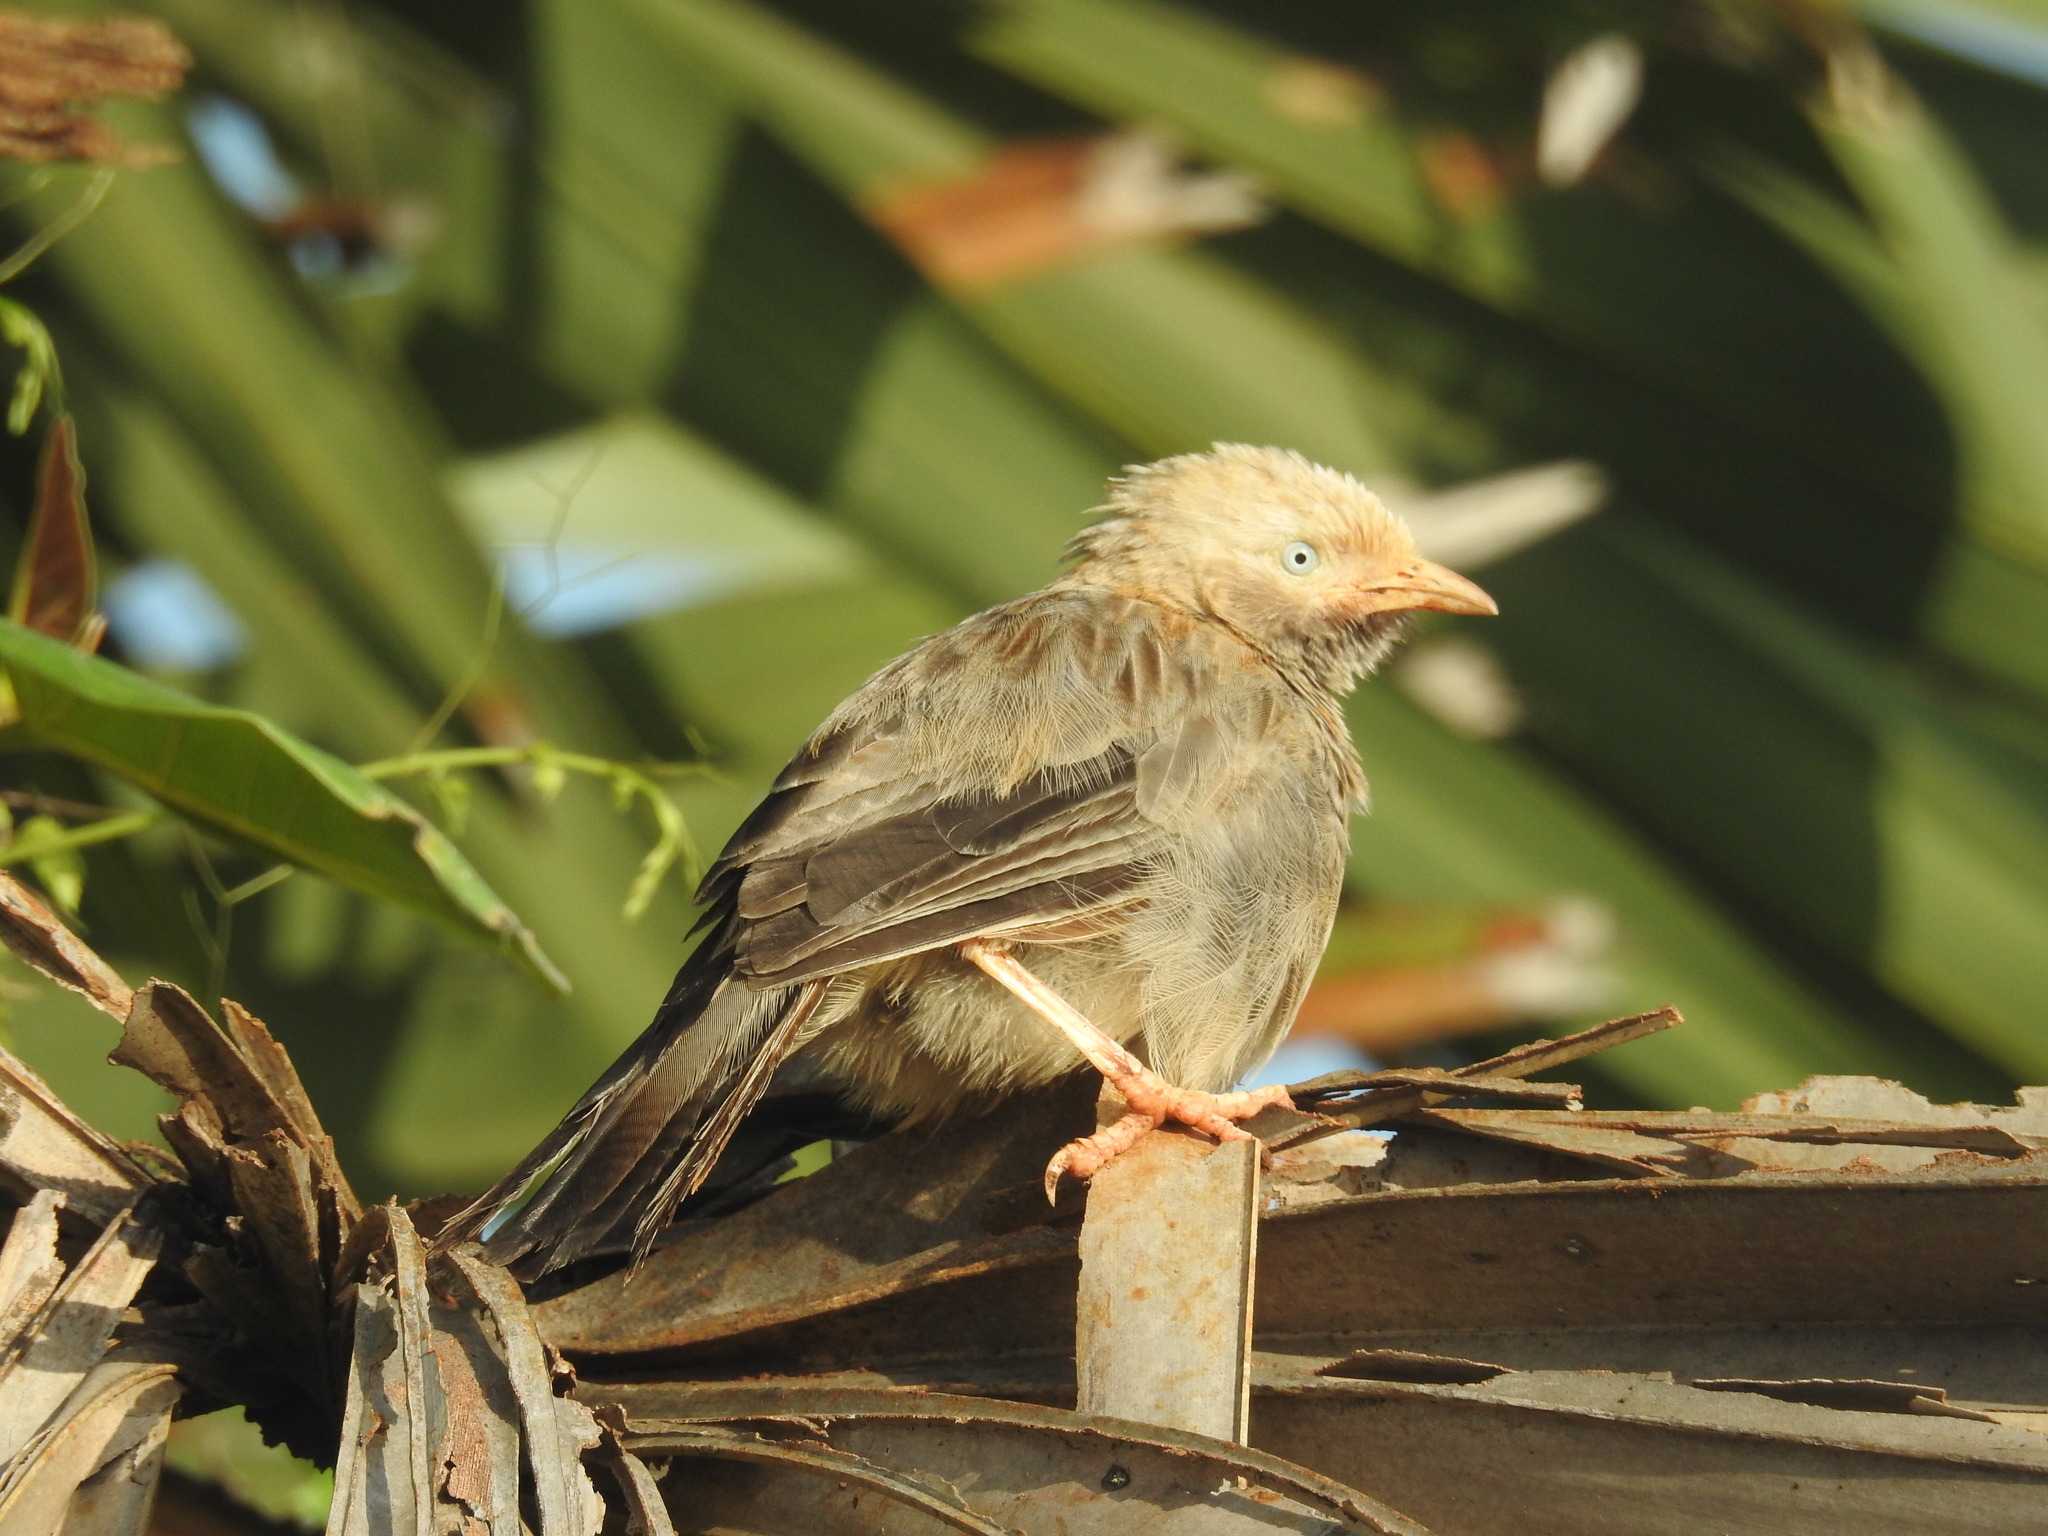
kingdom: Animalia
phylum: Chordata
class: Aves
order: Passeriformes
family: Leiothrichidae
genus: Turdoides
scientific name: Turdoides affinis
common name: Yellow-billed babbler
